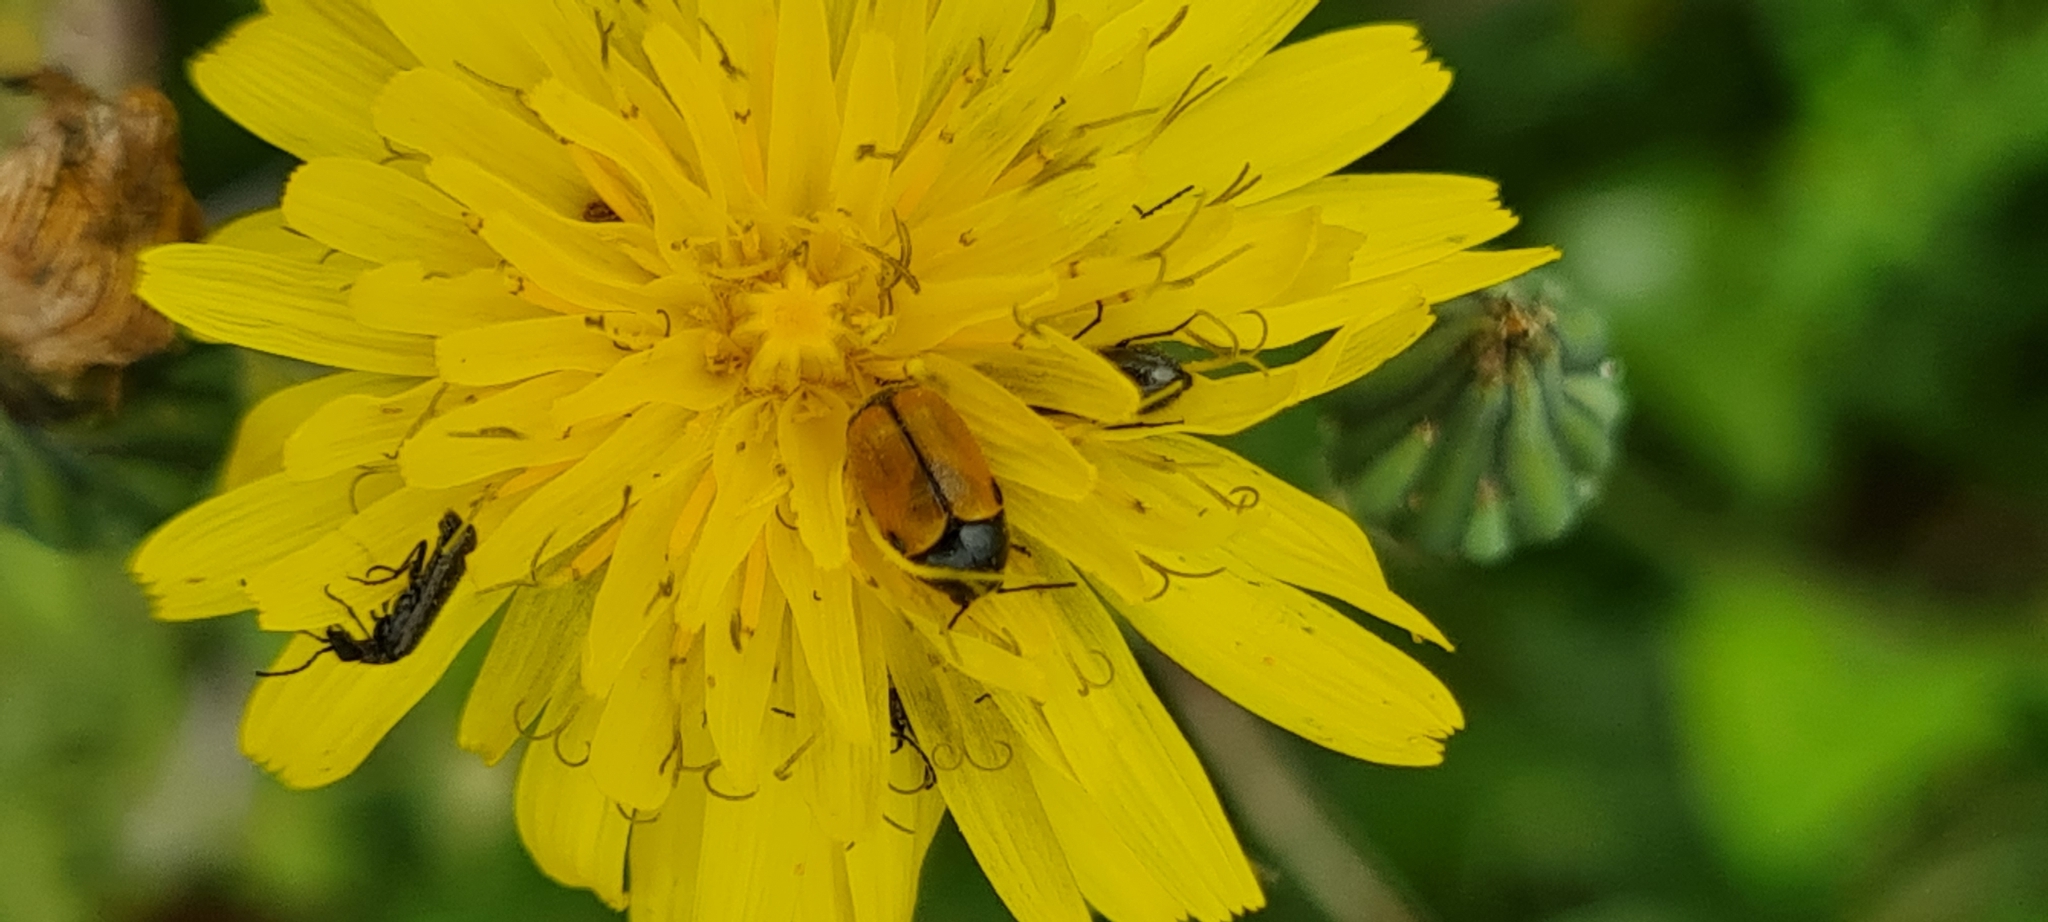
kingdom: Animalia
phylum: Arthropoda
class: Insecta
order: Coleoptera
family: Chrysomelidae
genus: Cryptocephalus
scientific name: Cryptocephalus rugicollis
